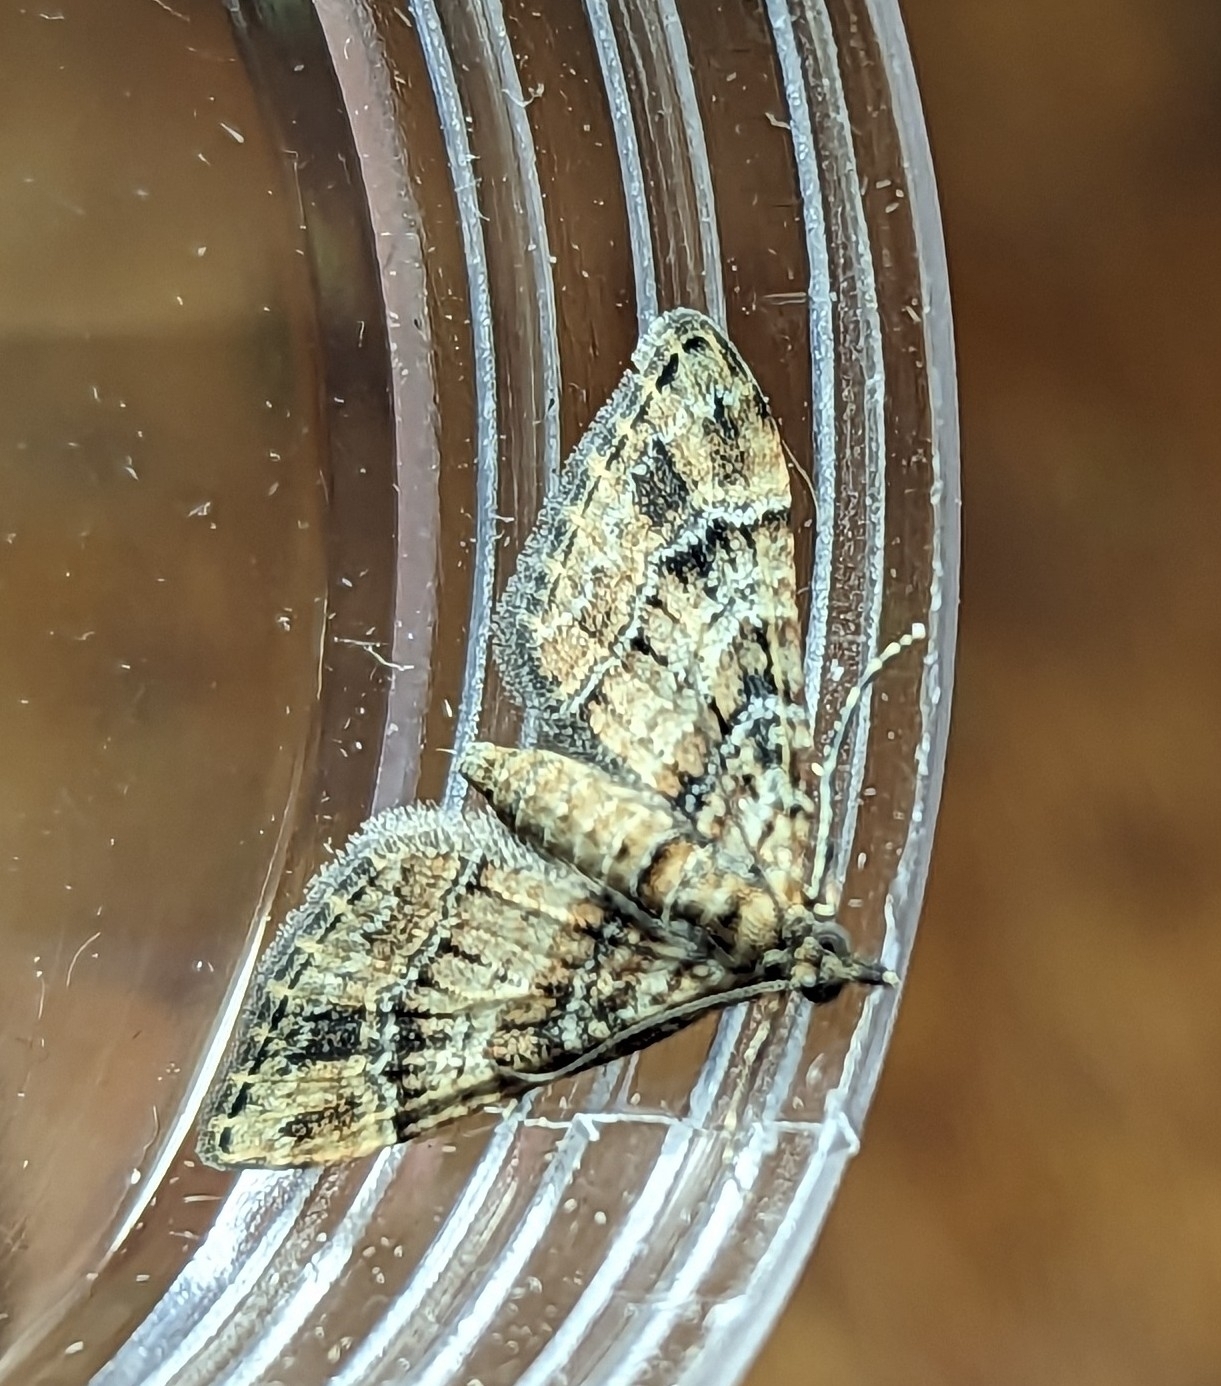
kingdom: Animalia
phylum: Arthropoda
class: Insecta
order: Lepidoptera
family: Geometridae
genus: Gymnoscelis
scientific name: Gymnoscelis rufifasciata
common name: Double-striped pug
